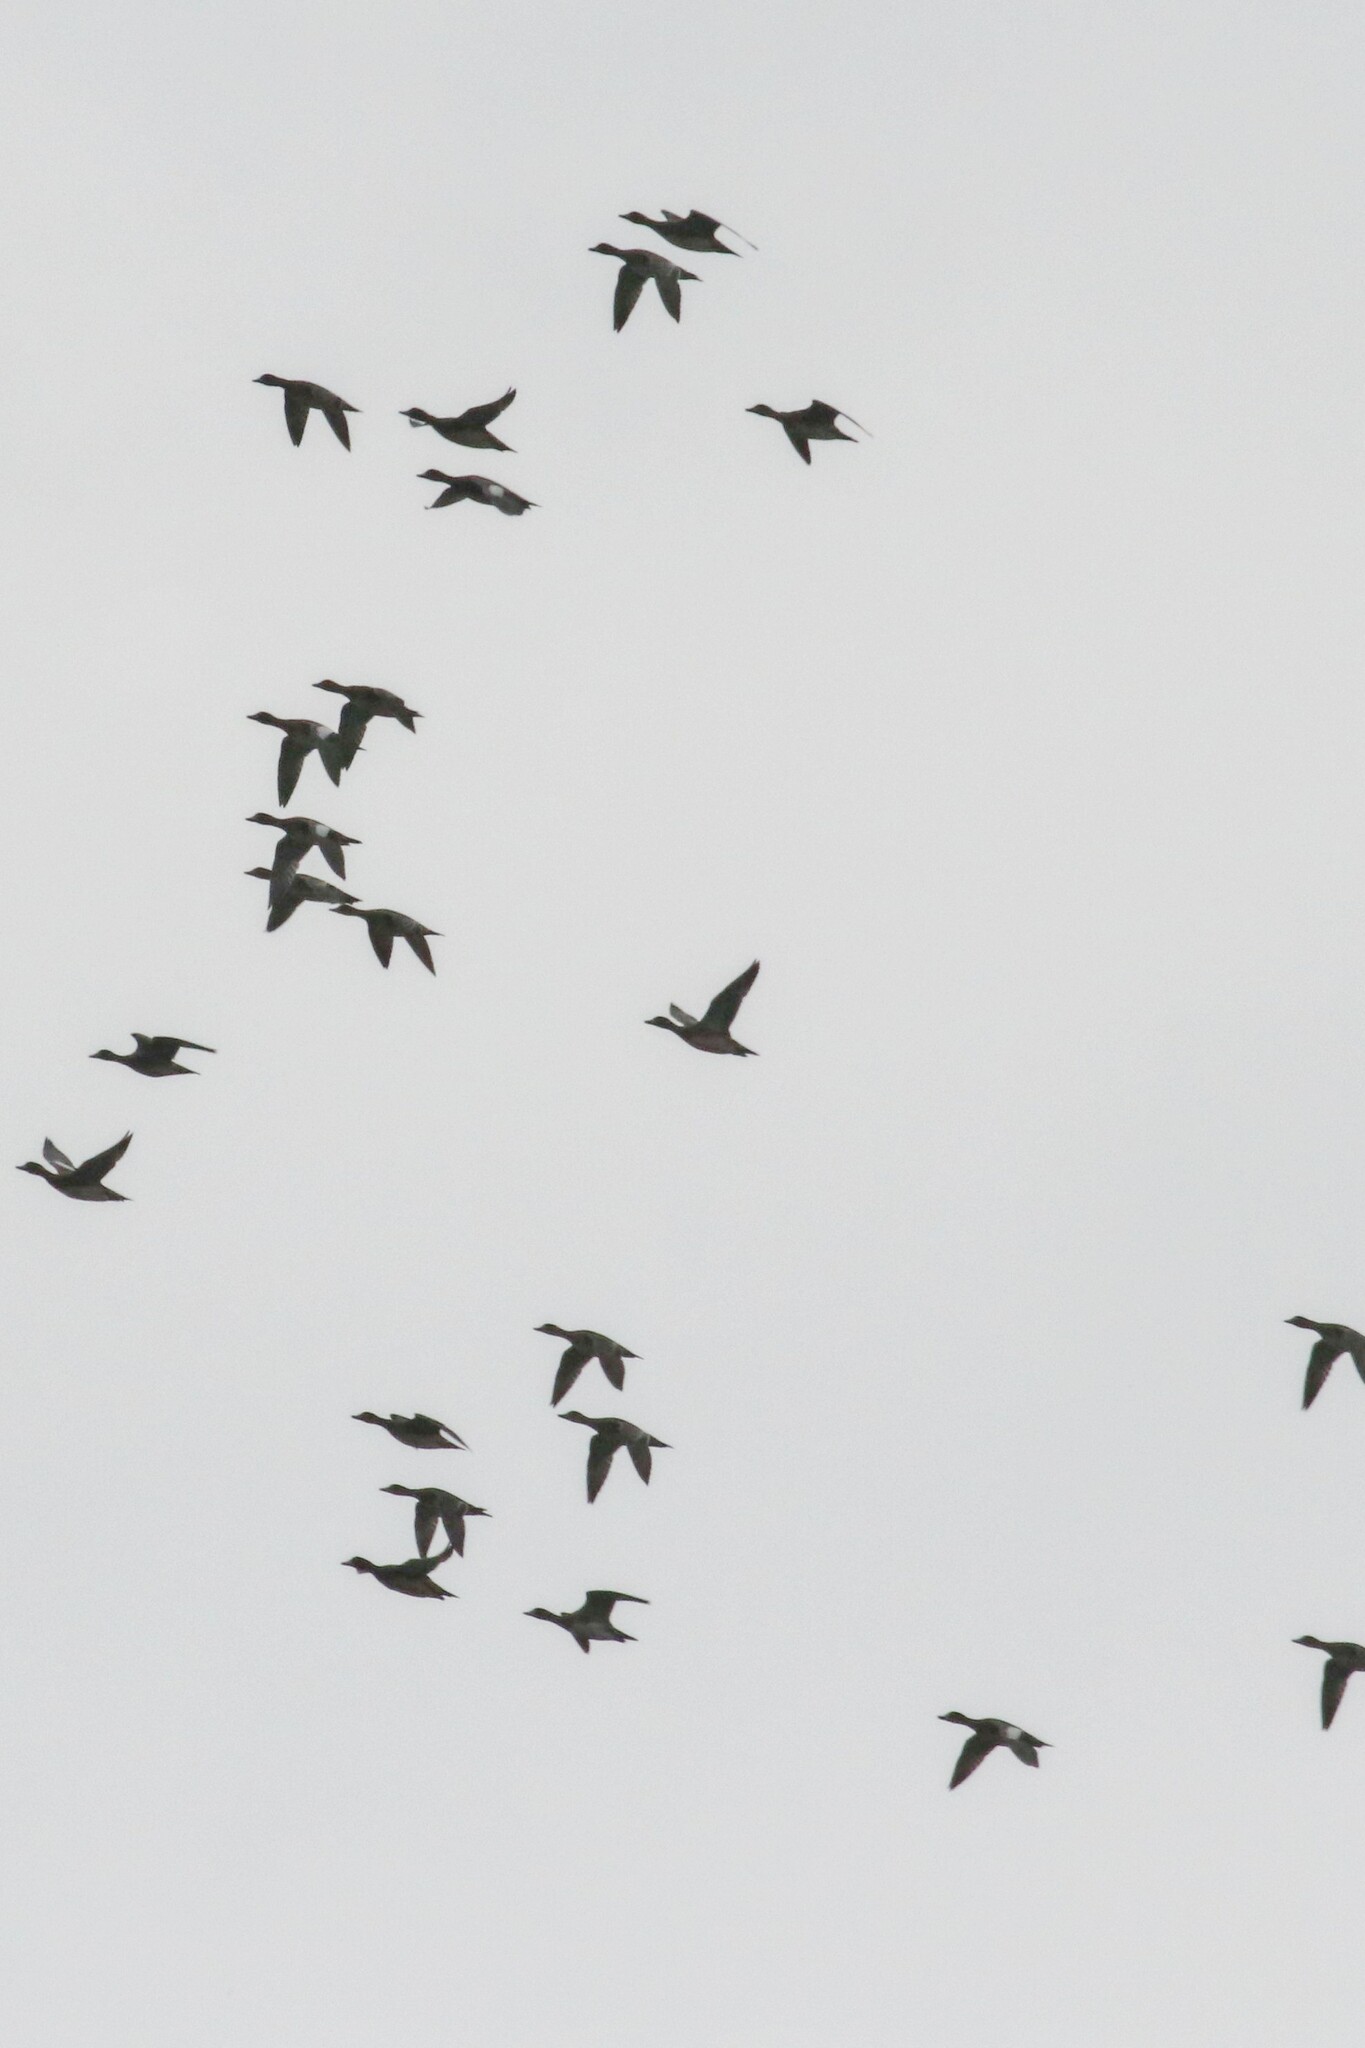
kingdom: Animalia
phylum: Chordata
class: Aves
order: Anseriformes
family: Anatidae
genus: Mareca
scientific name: Mareca penelope
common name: Eurasian wigeon
